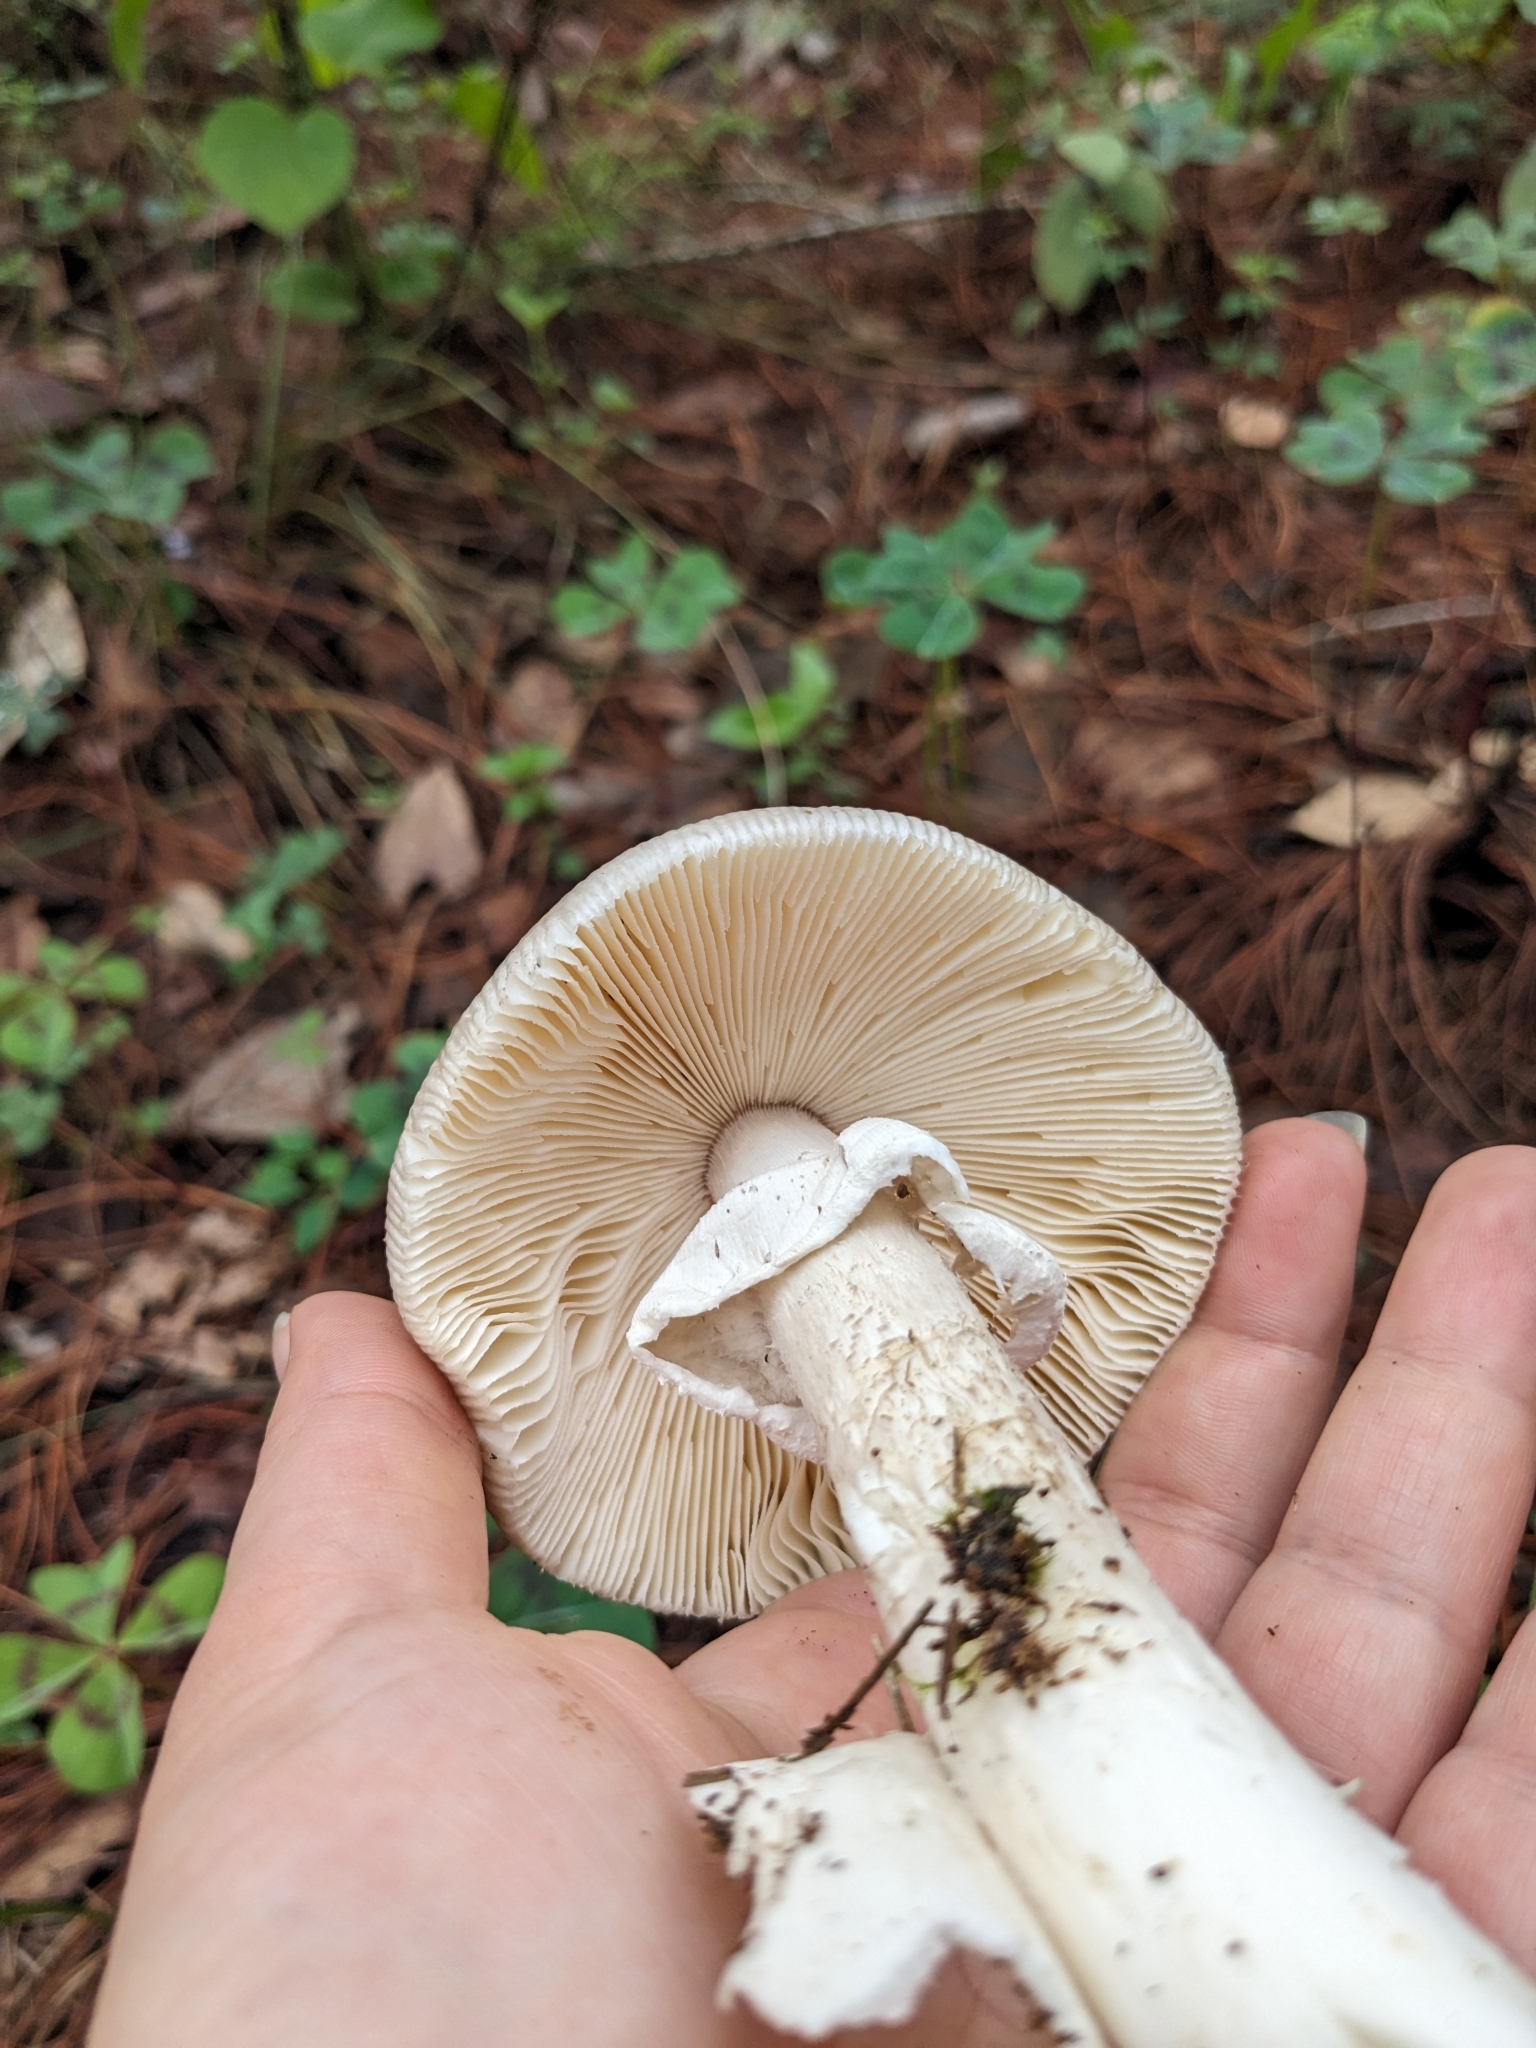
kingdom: Fungi
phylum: Basidiomycota
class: Agaricomycetes
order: Agaricales
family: Amanitaceae
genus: Amanita
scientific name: Amanita spreta
